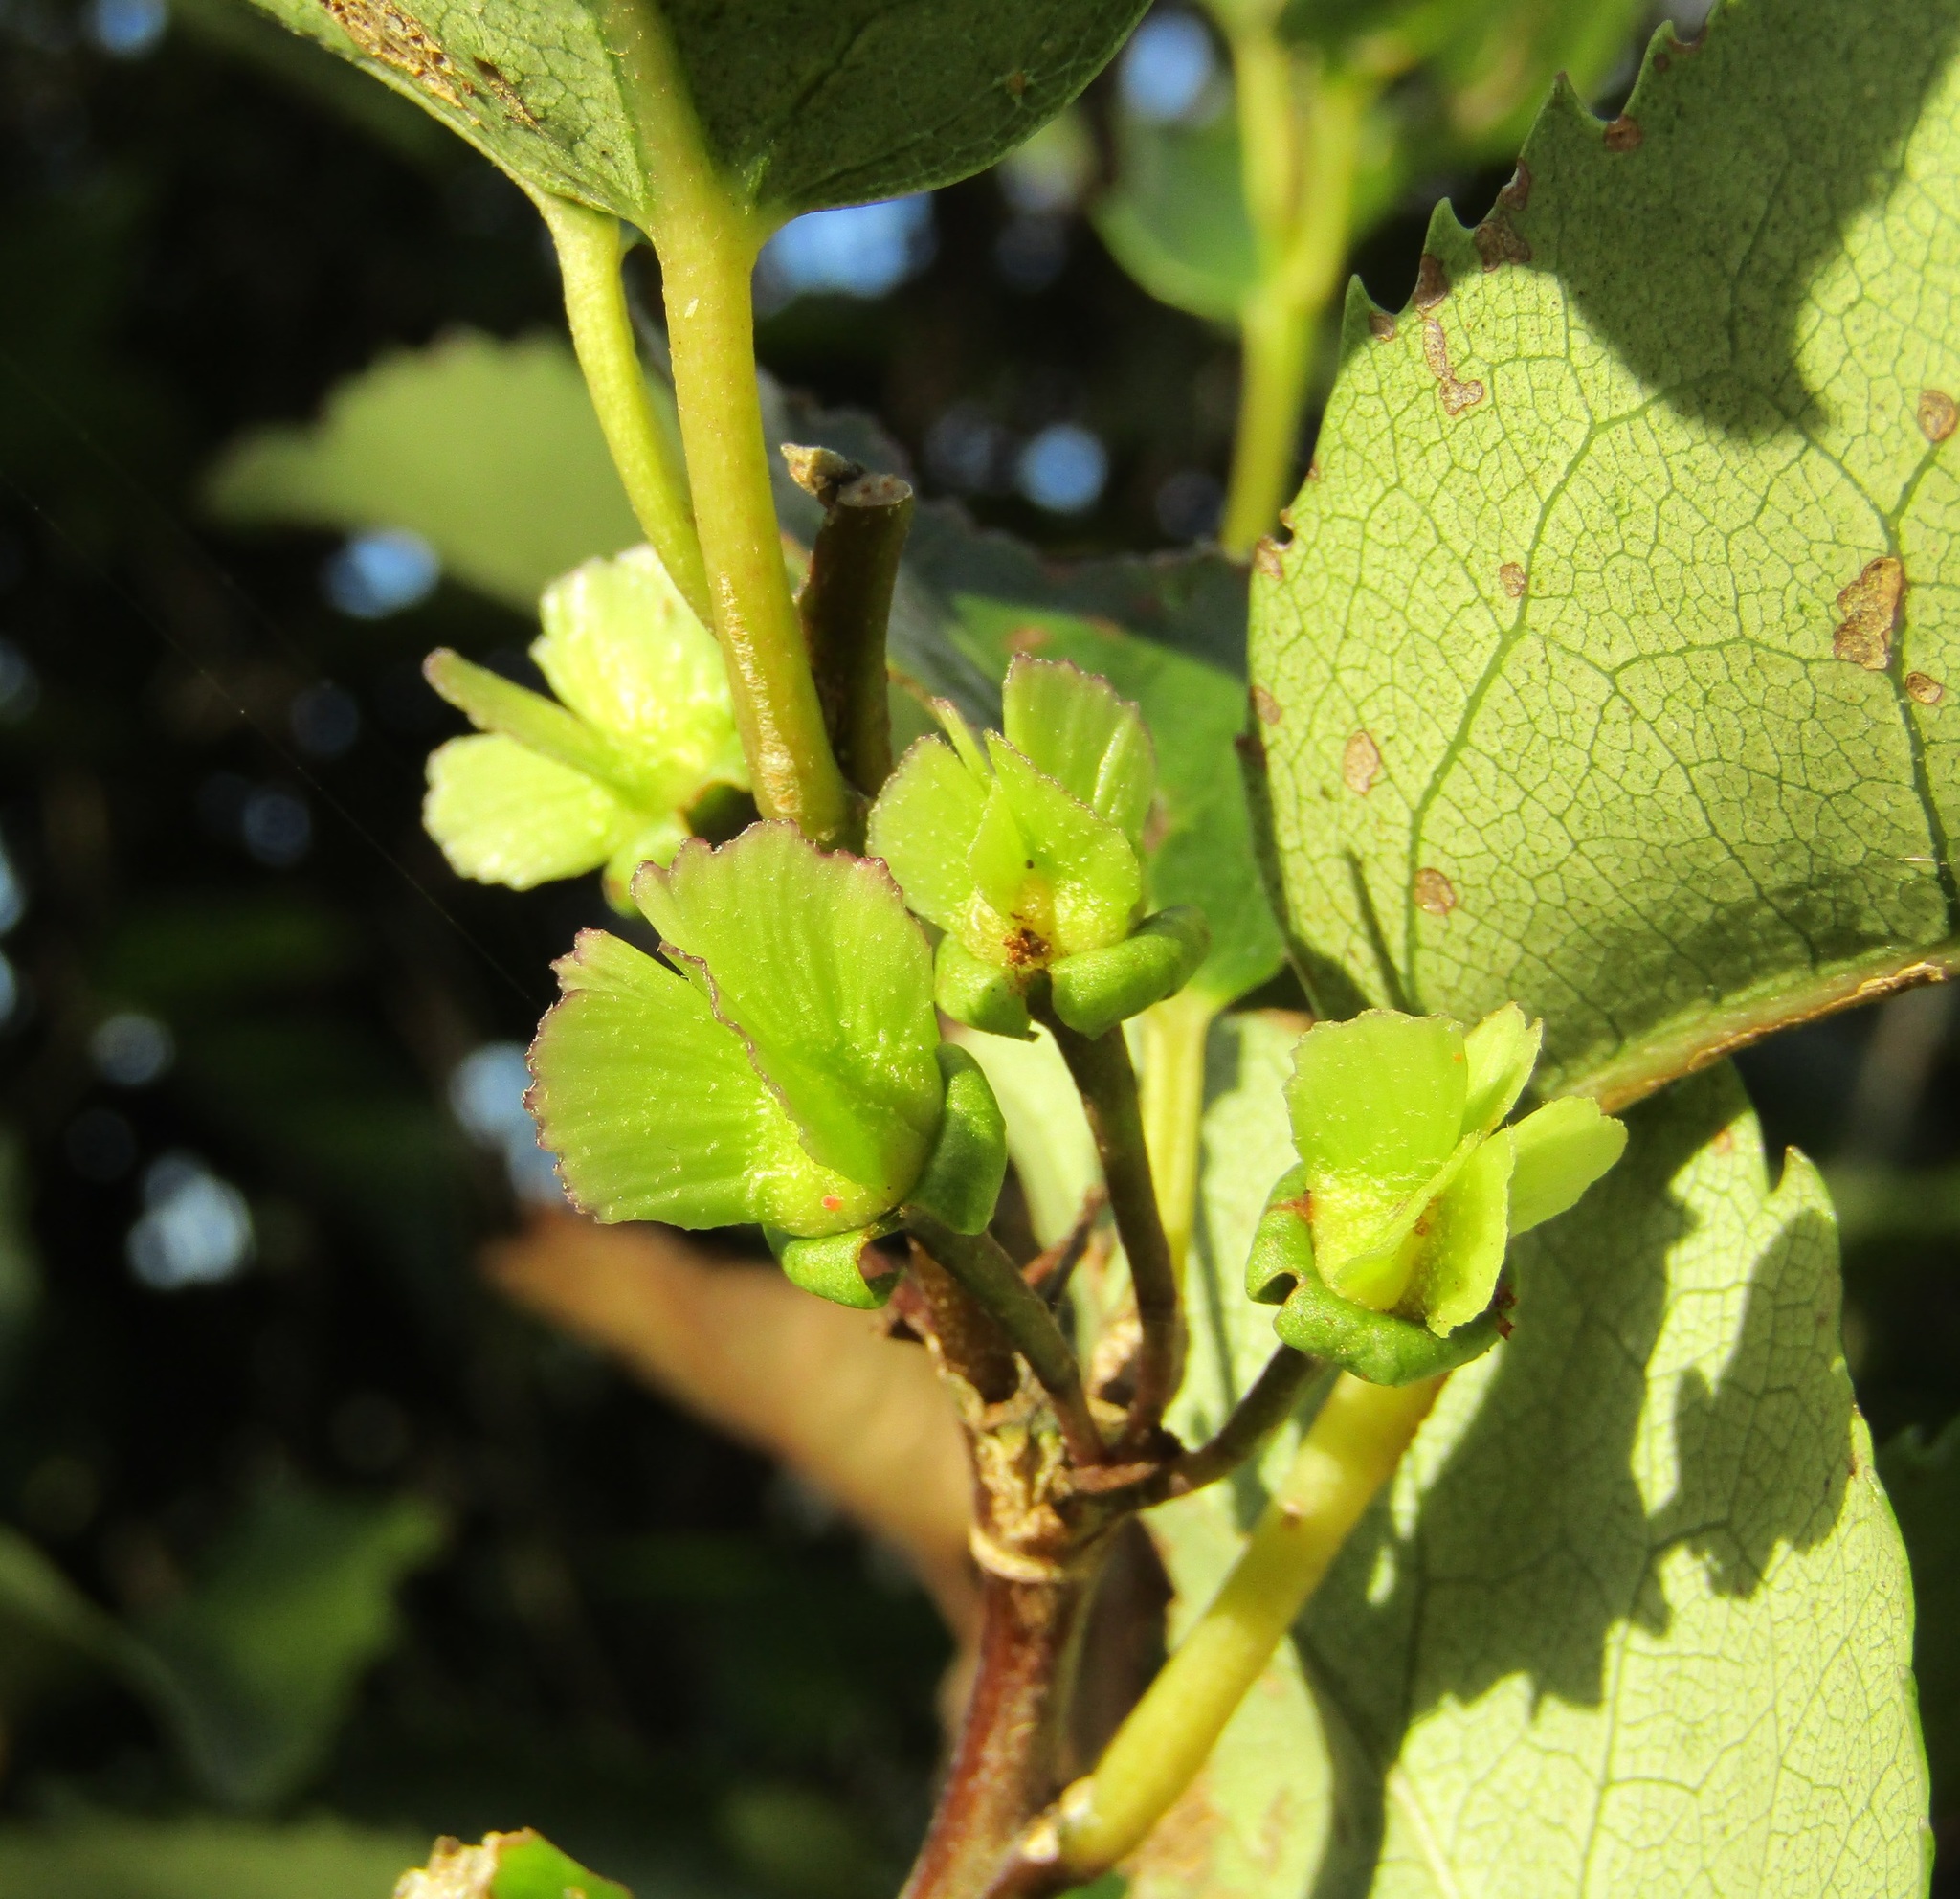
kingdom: Plantae
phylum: Tracheophyta
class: Magnoliopsida
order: Malvales
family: Malvaceae
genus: Hoheria
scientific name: Hoheria populnea
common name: Lacebark
